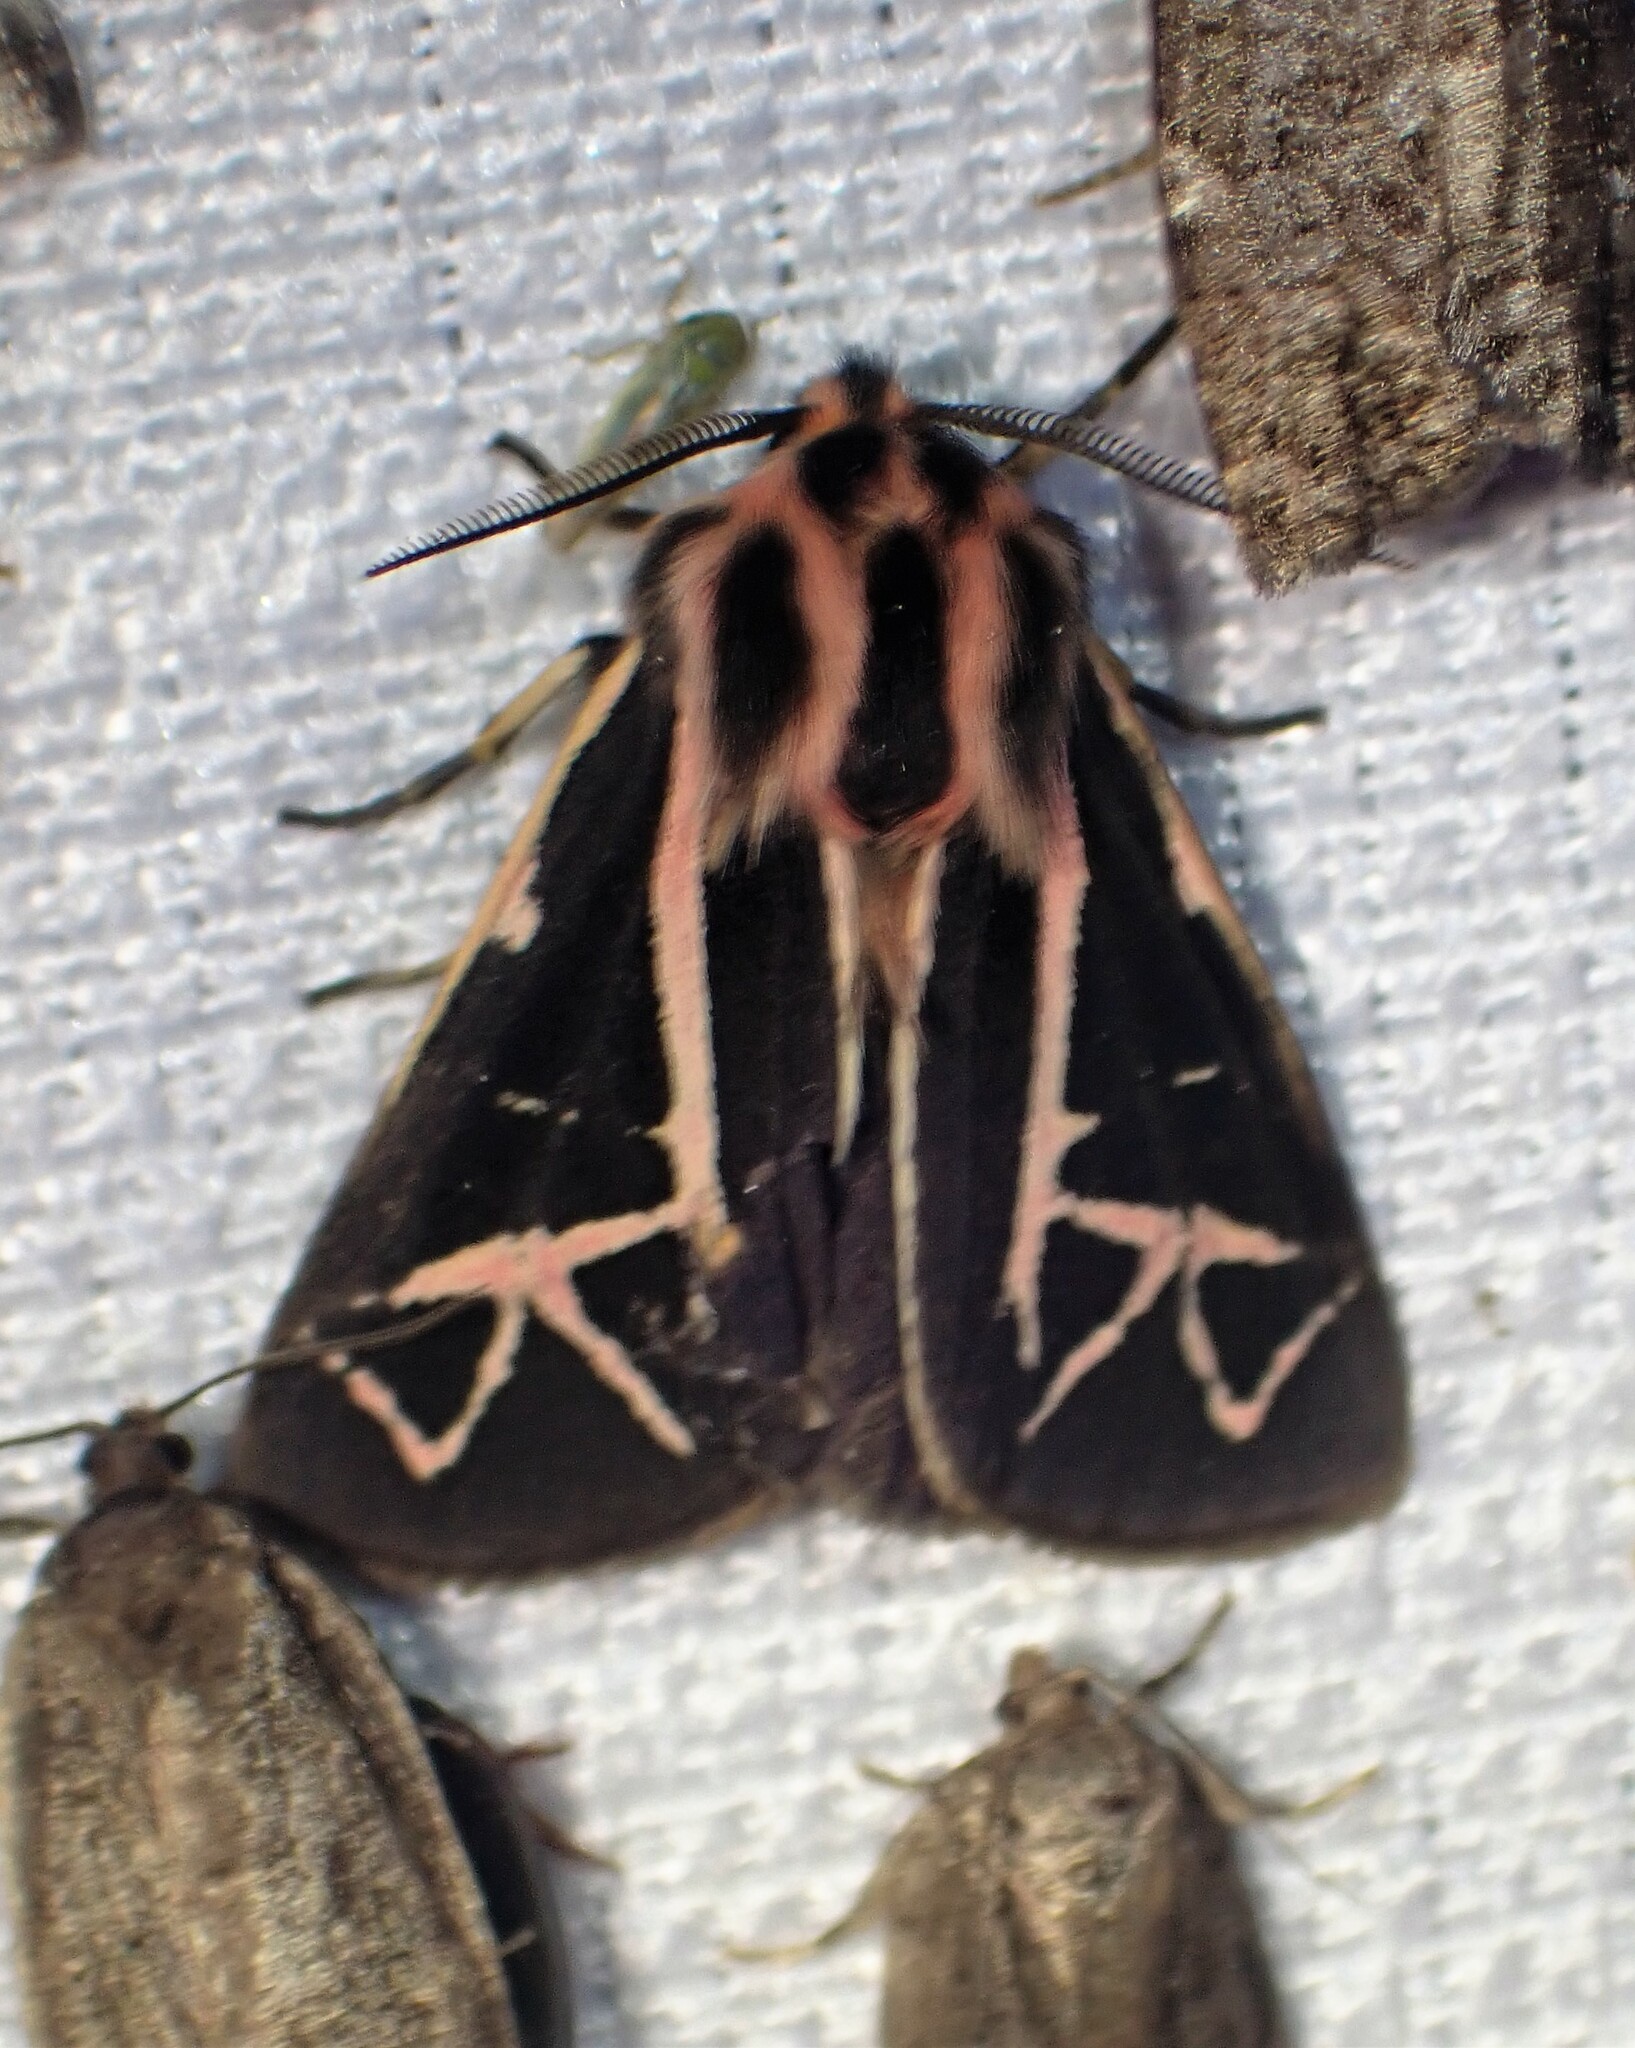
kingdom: Animalia
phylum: Arthropoda
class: Insecta
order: Lepidoptera
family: Erebidae
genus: Apantesis
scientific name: Apantesis
